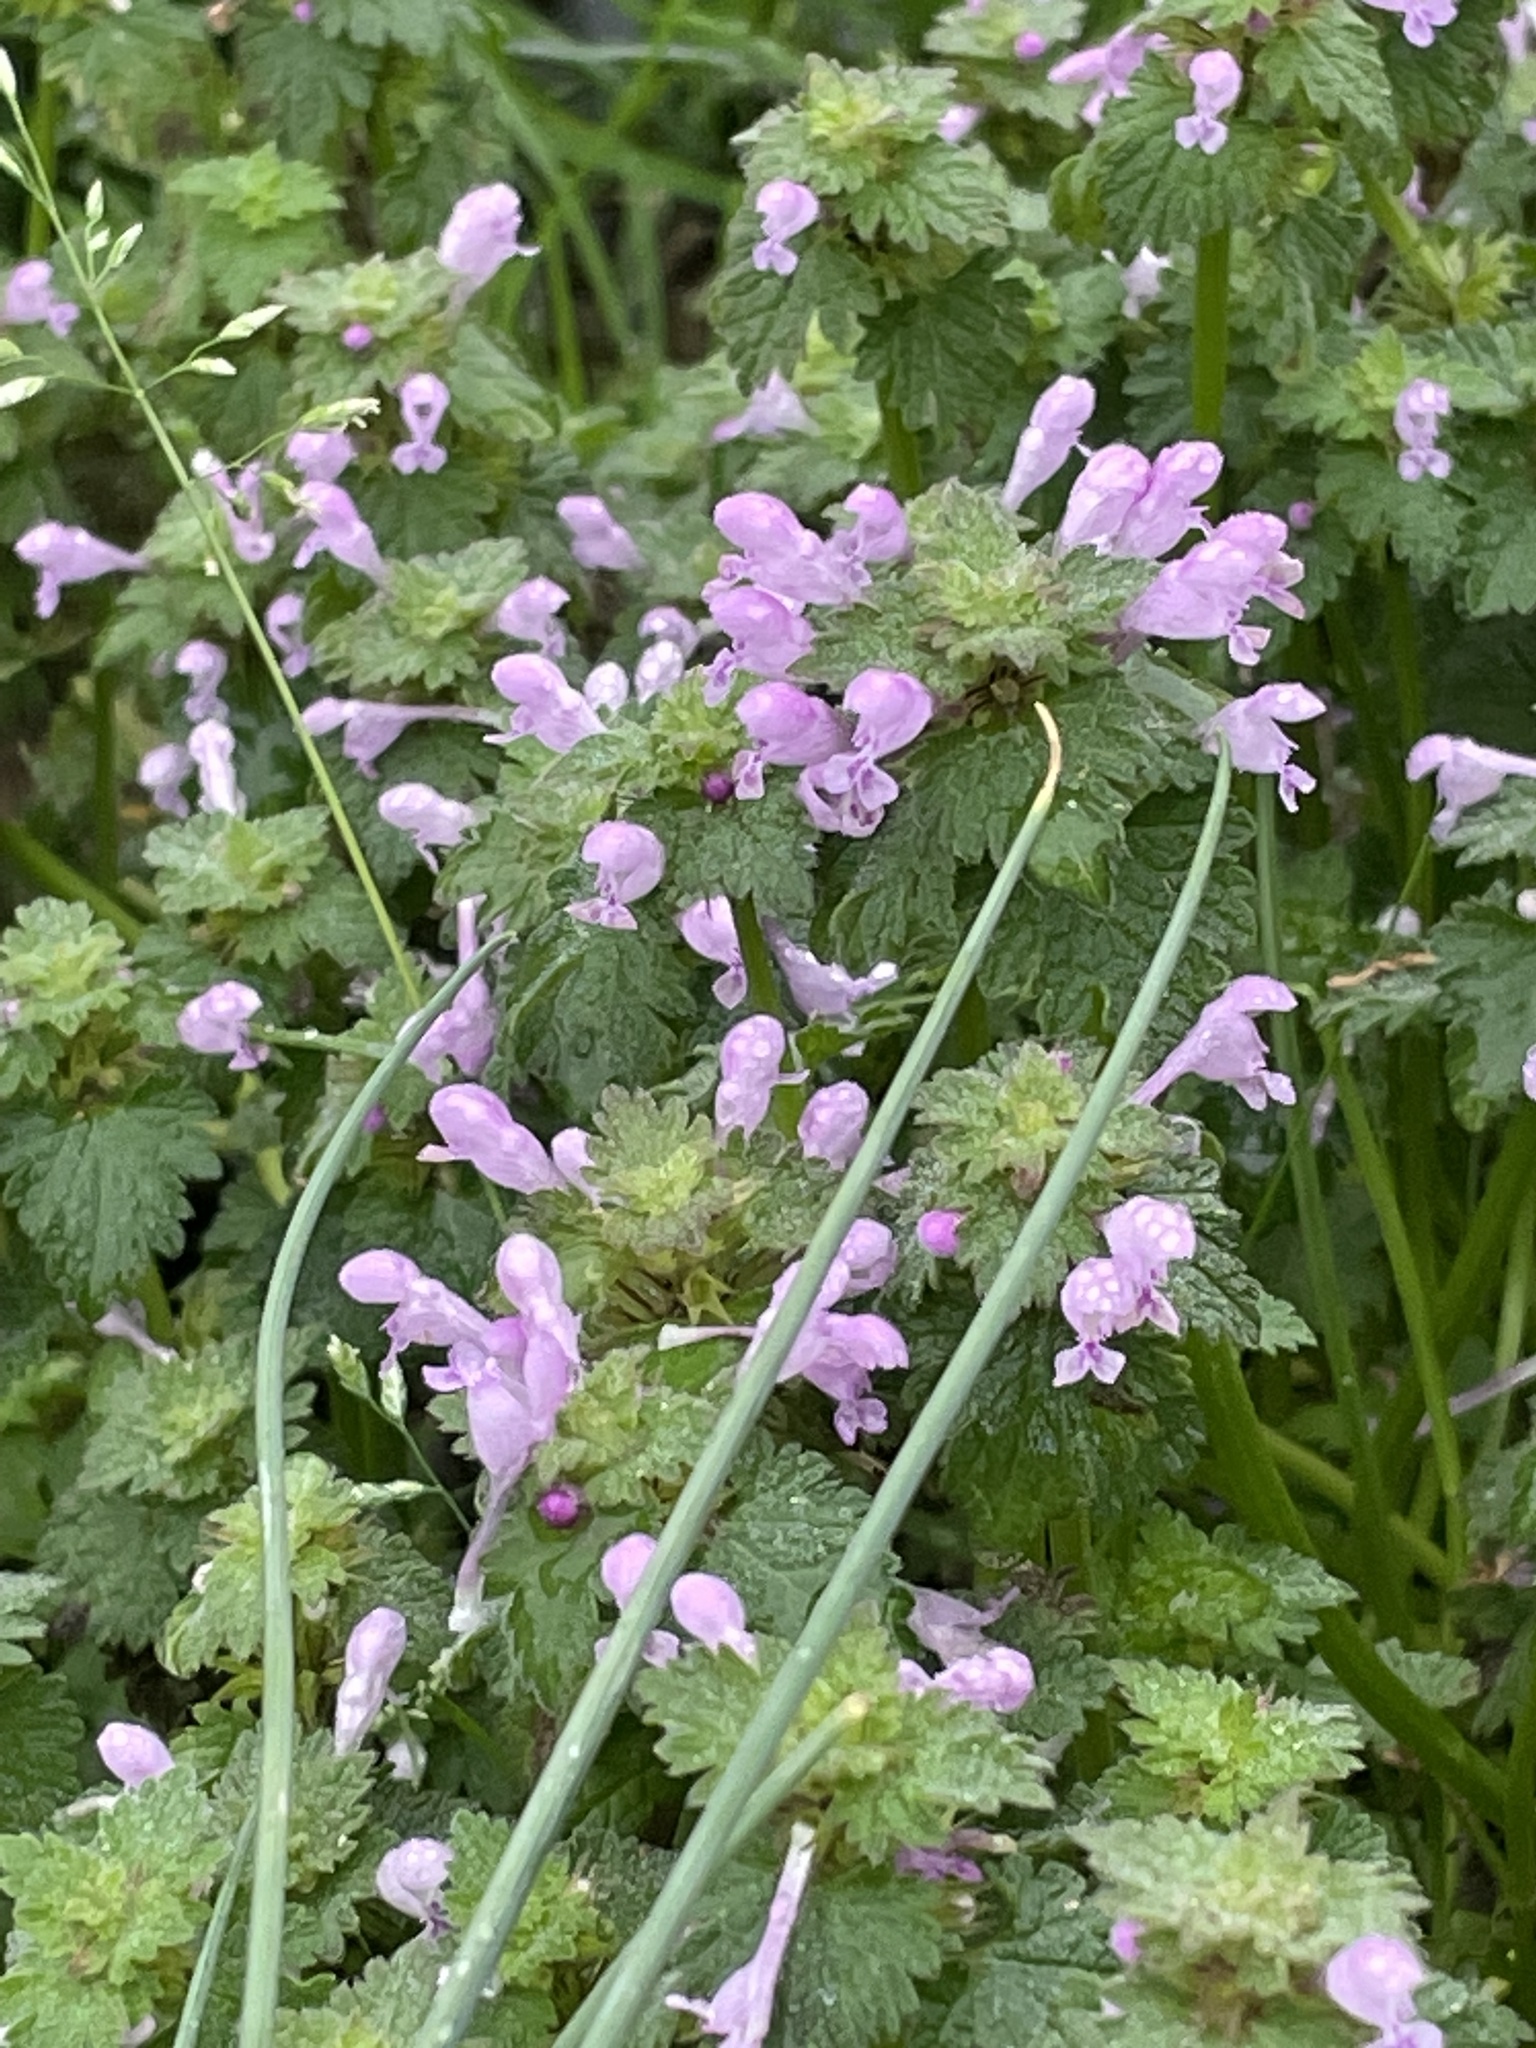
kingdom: Plantae
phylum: Tracheophyta
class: Magnoliopsida
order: Lamiales
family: Lamiaceae
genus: Lamium
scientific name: Lamium purpureum
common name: Red dead-nettle
